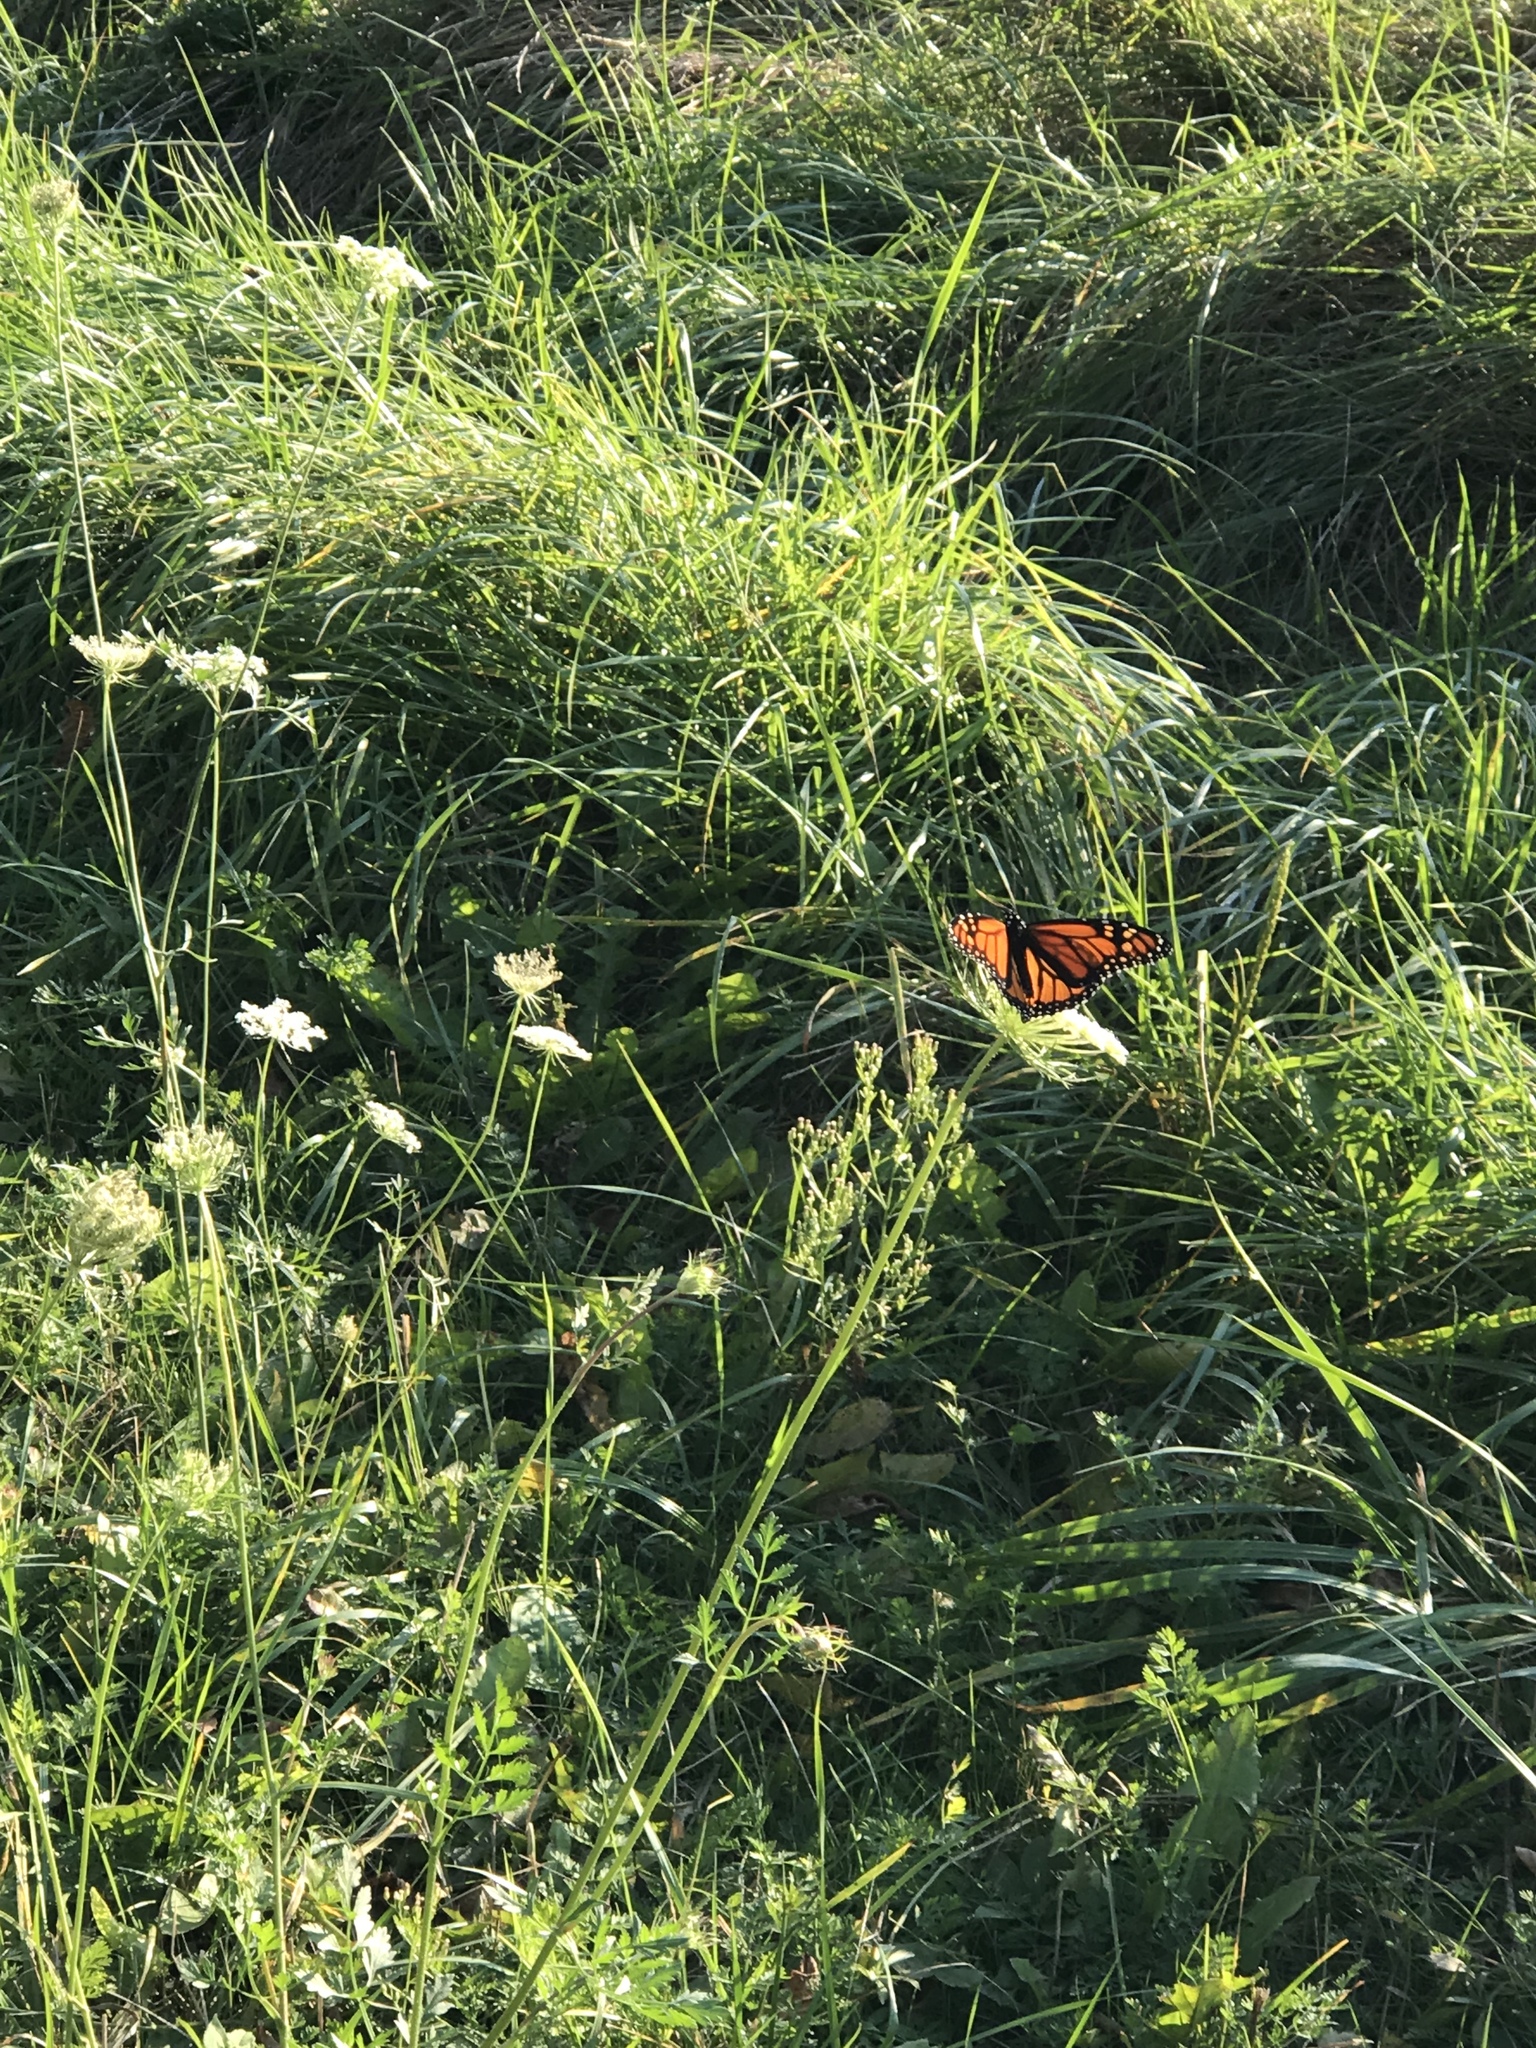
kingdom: Animalia
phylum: Arthropoda
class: Insecta
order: Lepidoptera
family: Nymphalidae
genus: Danaus
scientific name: Danaus plexippus
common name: Monarch
